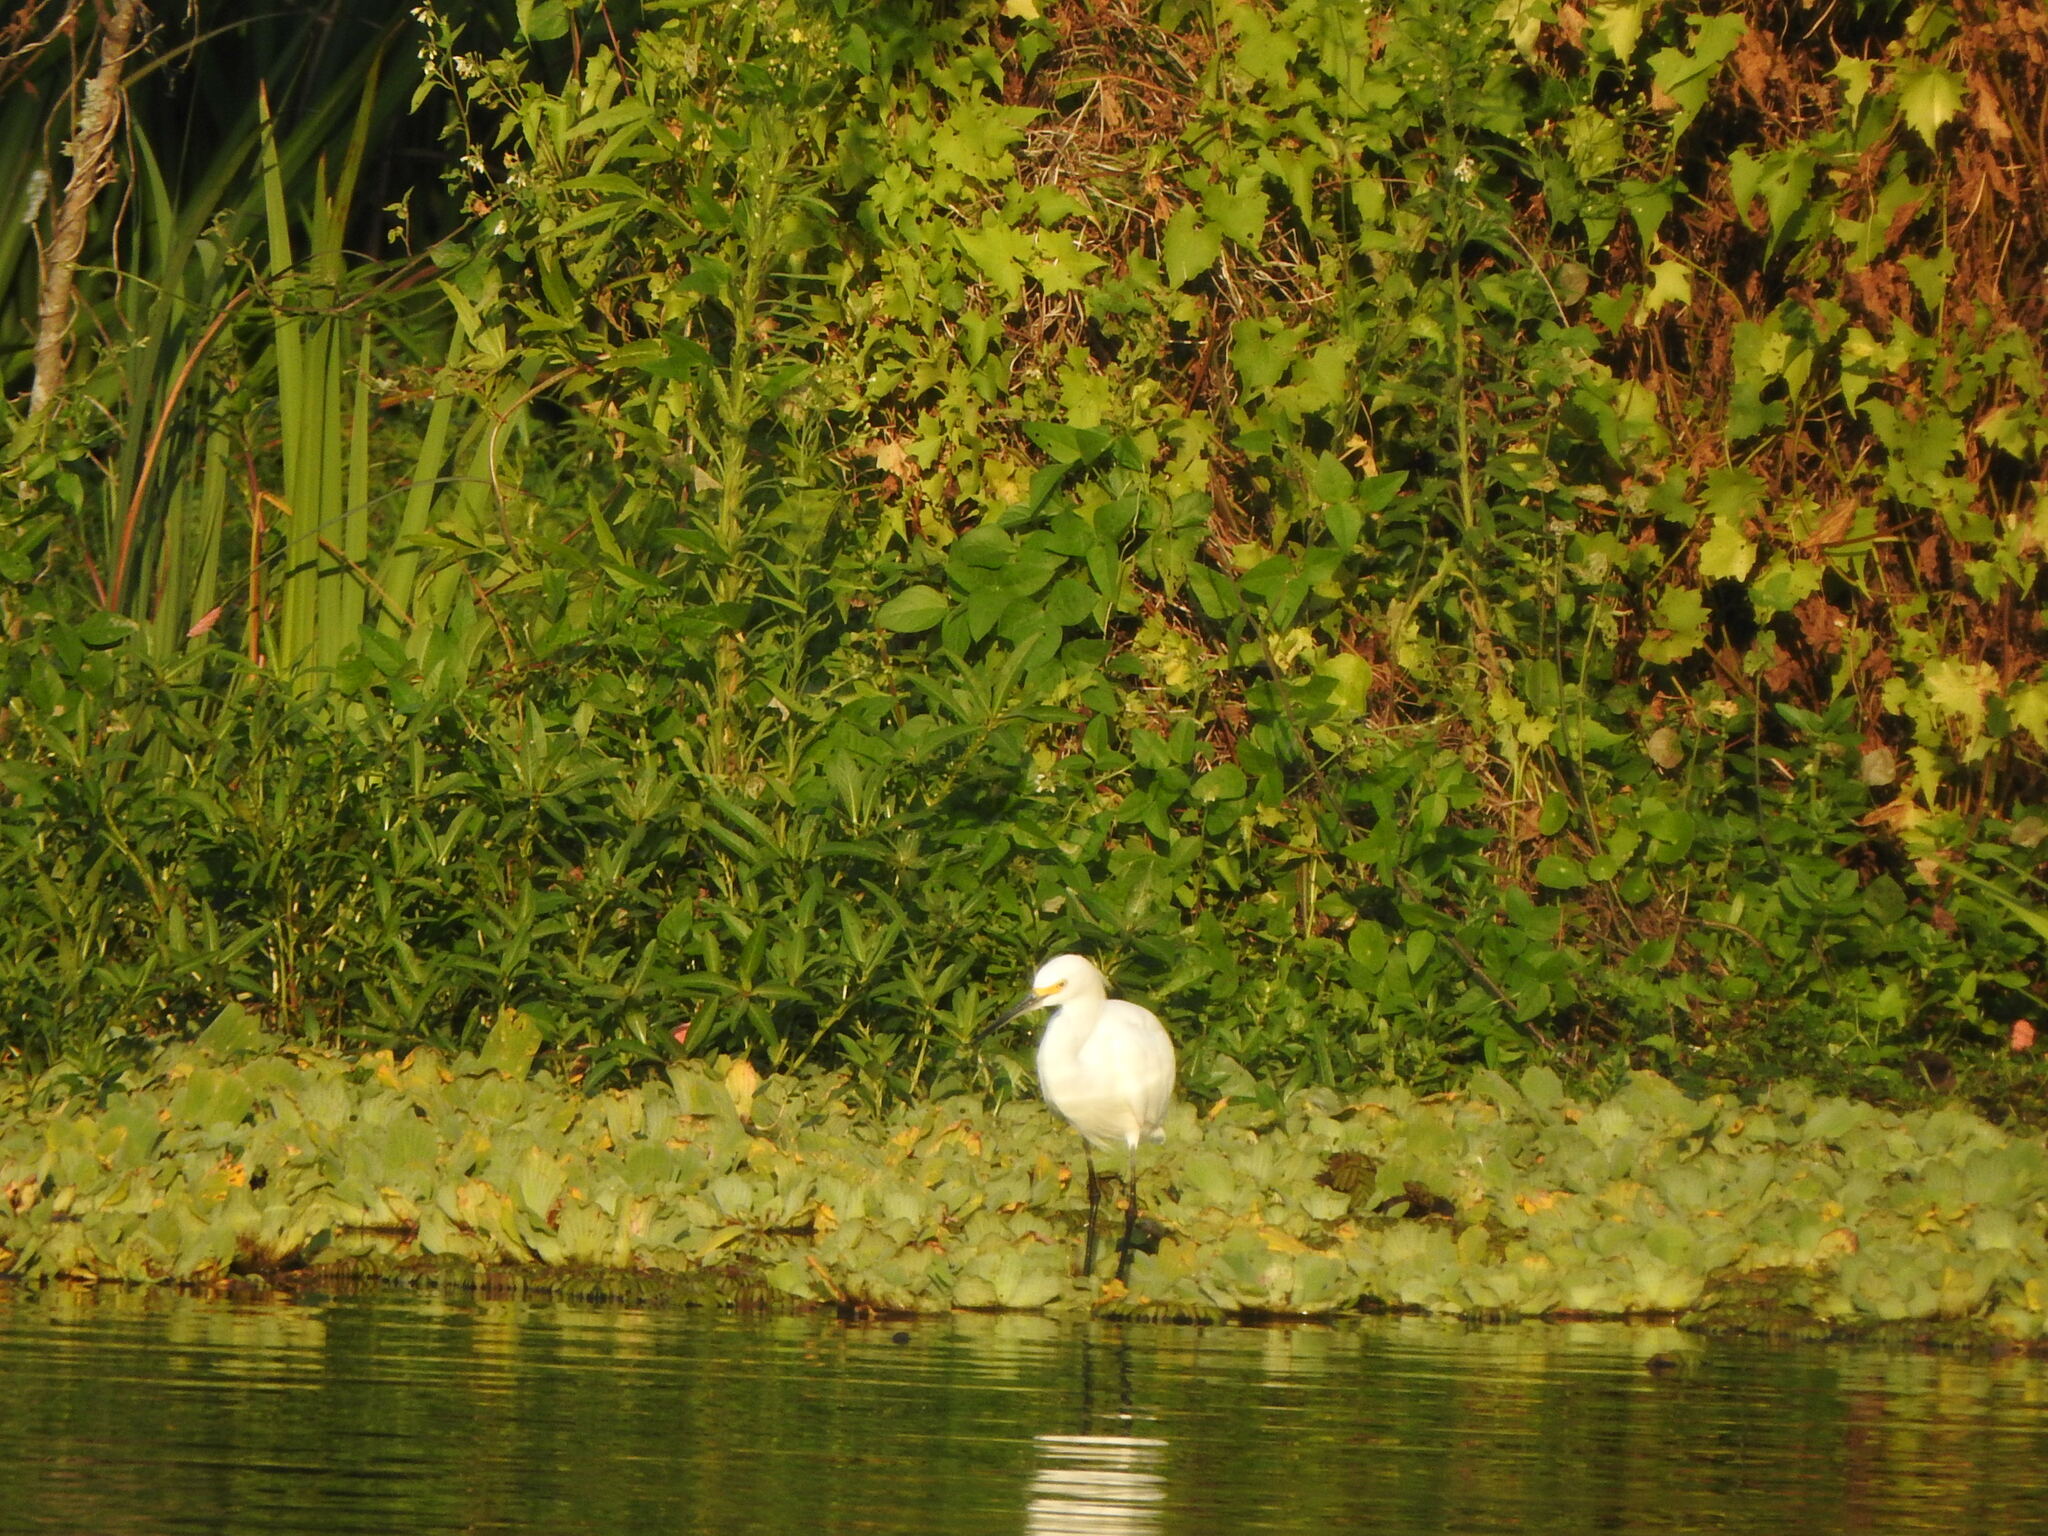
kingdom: Animalia
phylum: Chordata
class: Aves
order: Pelecaniformes
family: Ardeidae
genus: Egretta
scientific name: Egretta thula
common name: Snowy egret
